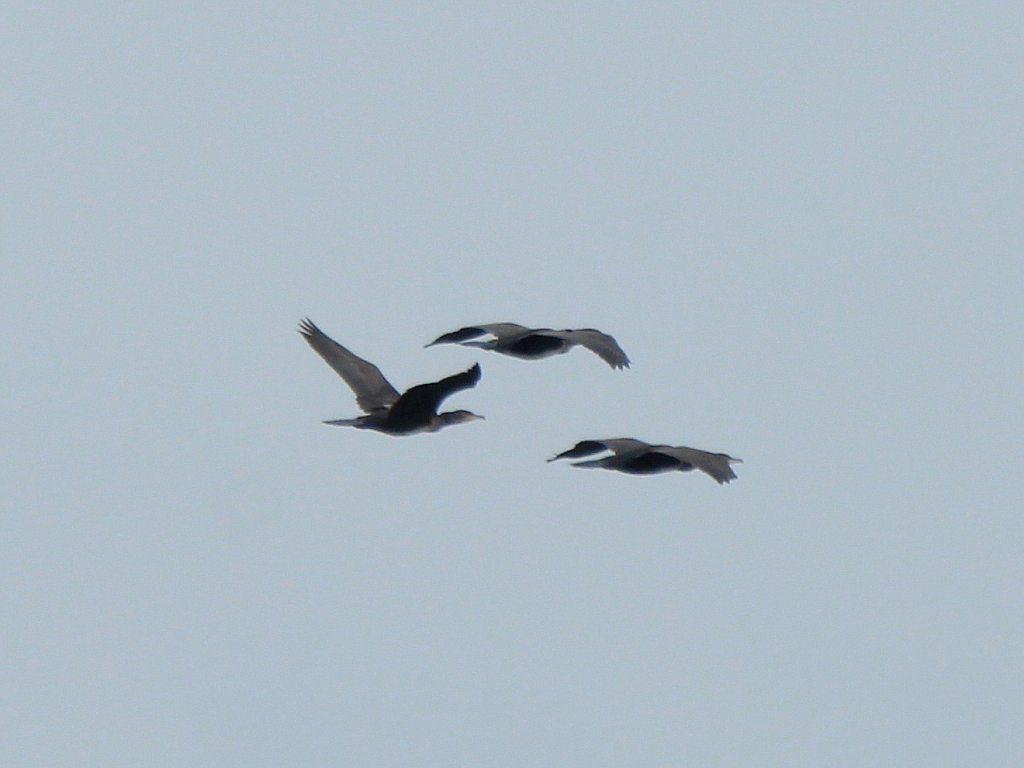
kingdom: Animalia
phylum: Chordata
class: Aves
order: Suliformes
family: Phalacrocoracidae
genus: Phalacrocorax
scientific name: Phalacrocorax carbo
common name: Great cormorant
